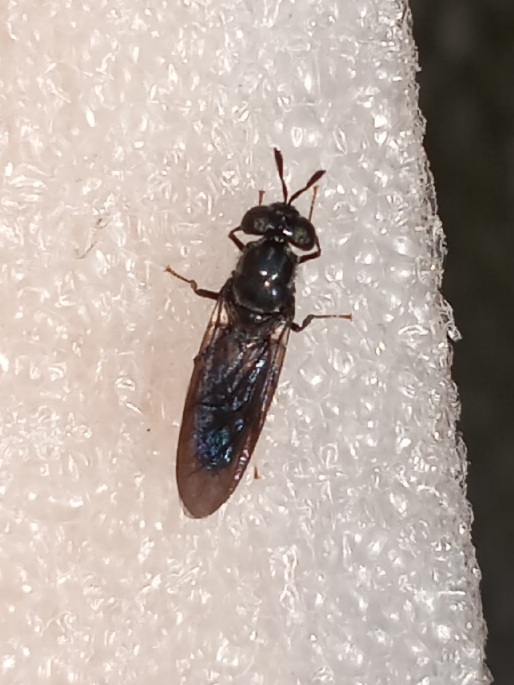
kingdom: Animalia
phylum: Arthropoda
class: Insecta
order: Diptera
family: Stratiomyidae
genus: Hermetia
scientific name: Hermetia illucens
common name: Black soldier fly
